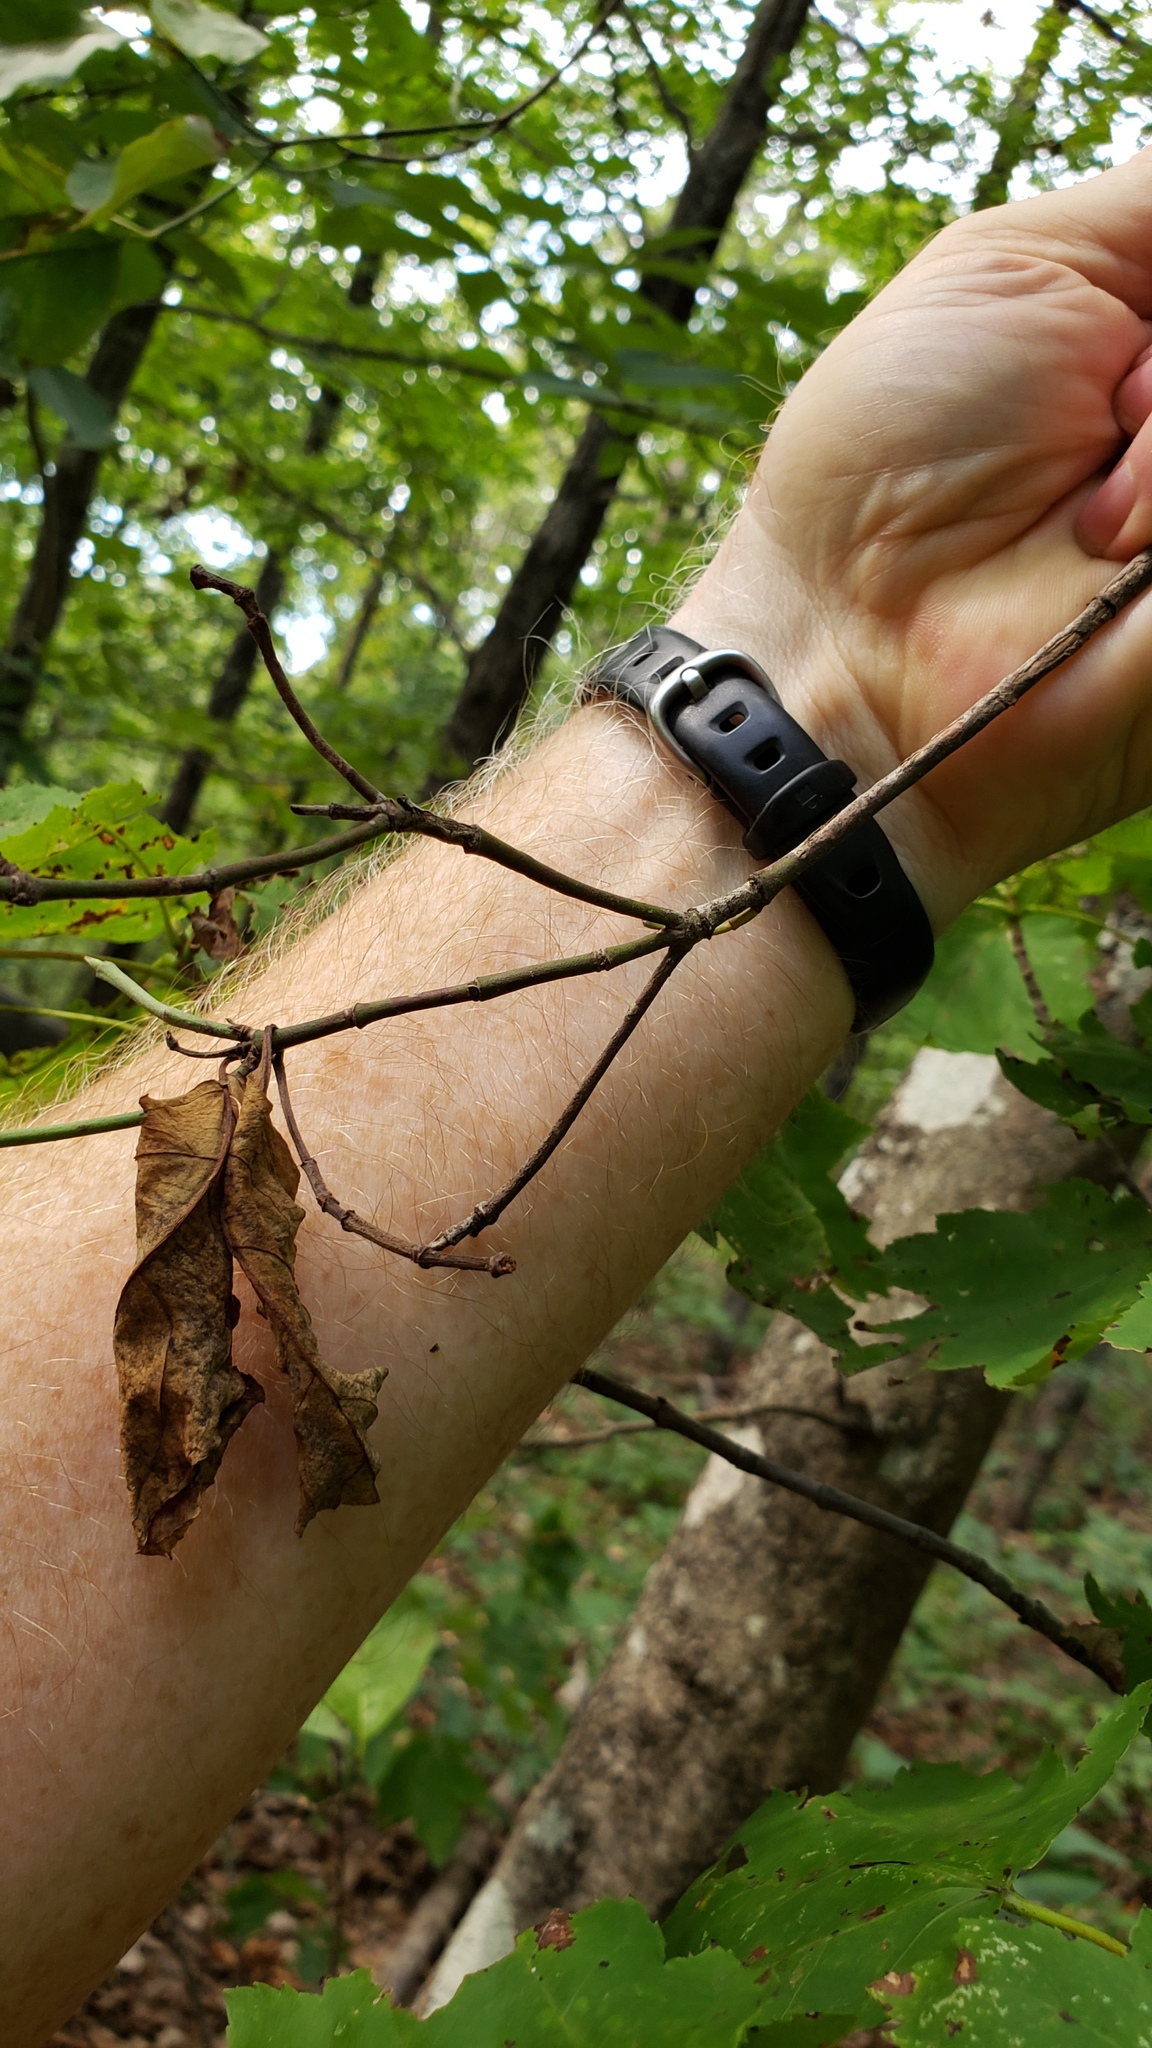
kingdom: Plantae
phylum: Tracheophyta
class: Magnoliopsida
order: Cornales
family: Cornaceae
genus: Cornus
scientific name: Cornus florida
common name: Flowering dogwood
